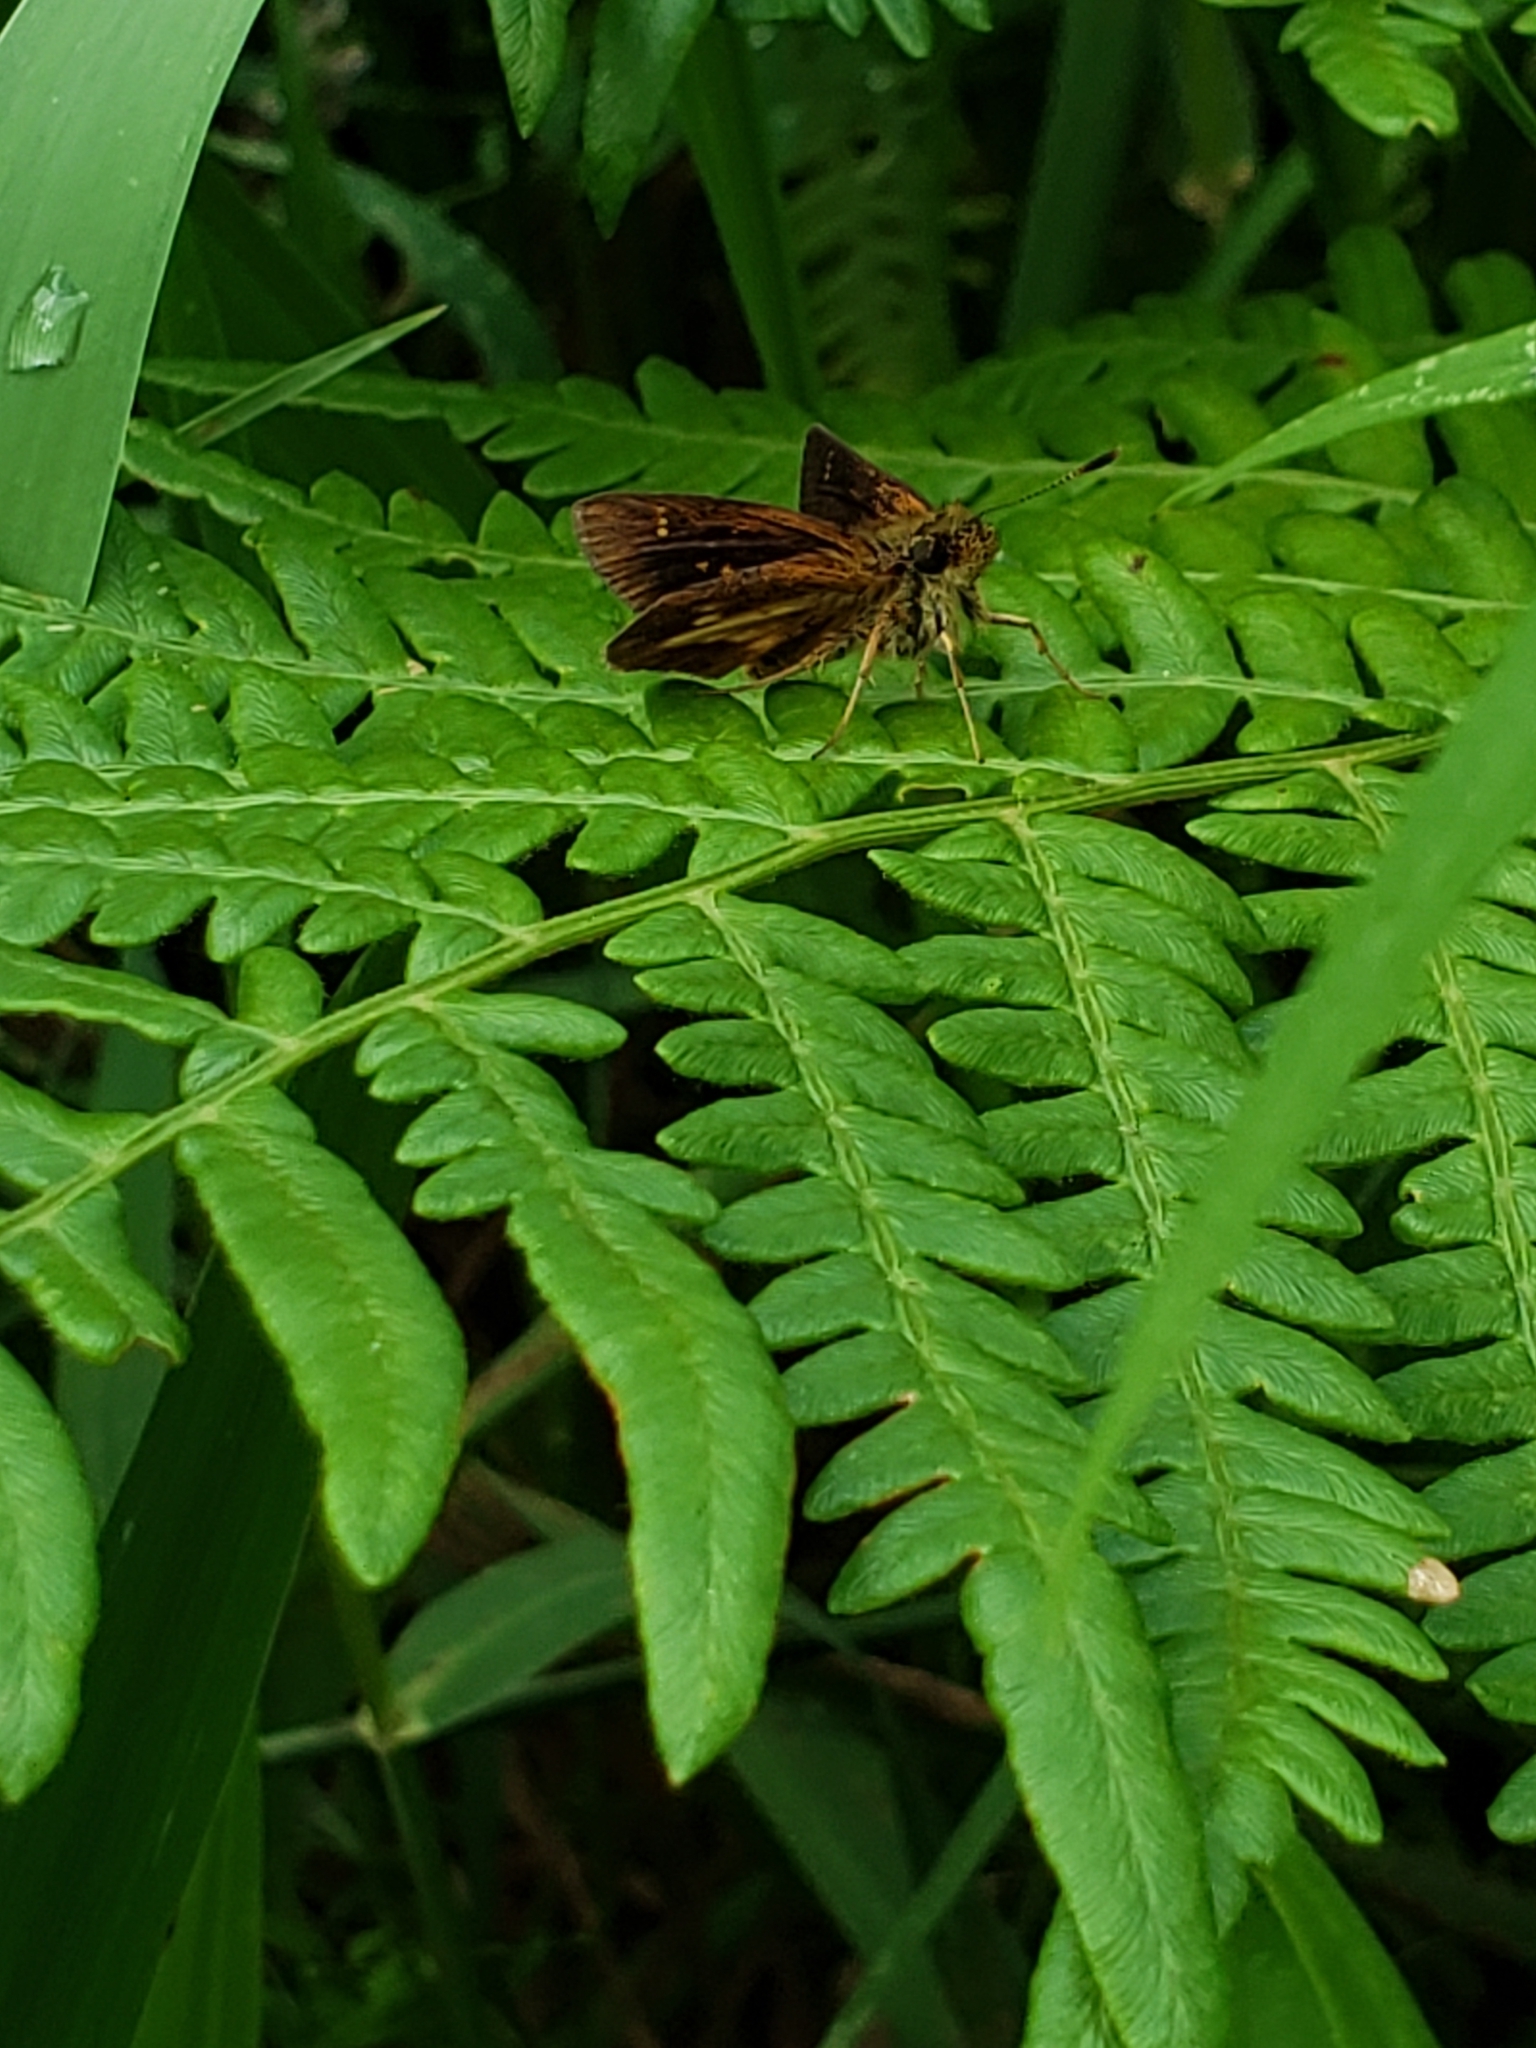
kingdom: Animalia
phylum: Arthropoda
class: Insecta
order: Lepidoptera
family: Hesperiidae
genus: Poanes
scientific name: Poanes massasoit
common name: Mulberrywing
